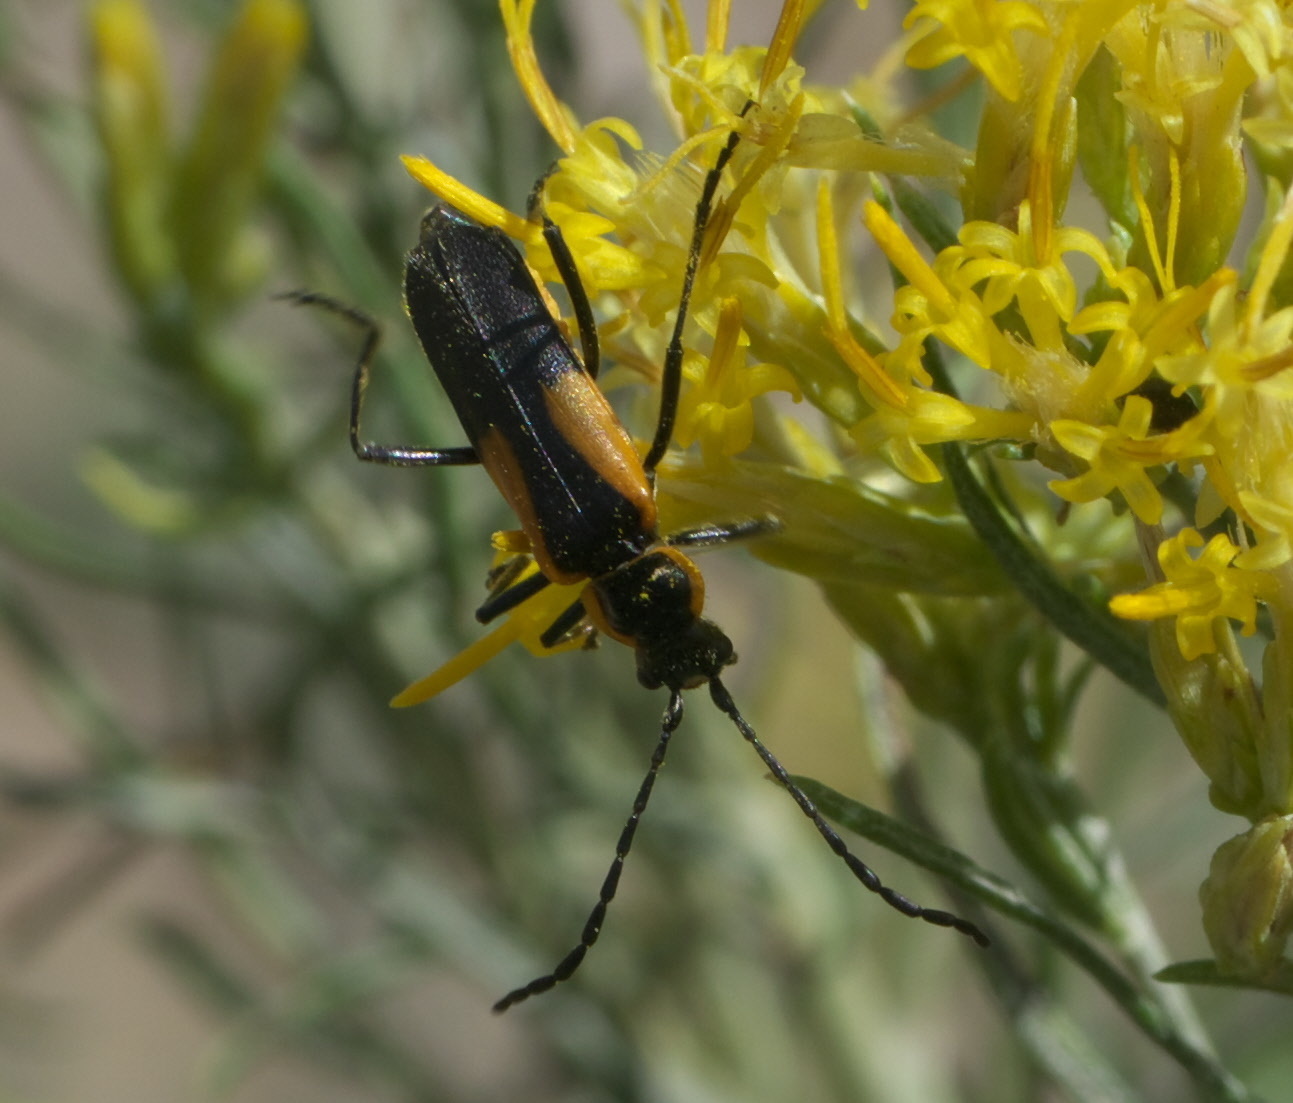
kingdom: Animalia
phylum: Arthropoda
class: Insecta
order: Coleoptera
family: Cantharidae
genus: Chauliognathus
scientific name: Chauliognathus deceptus
